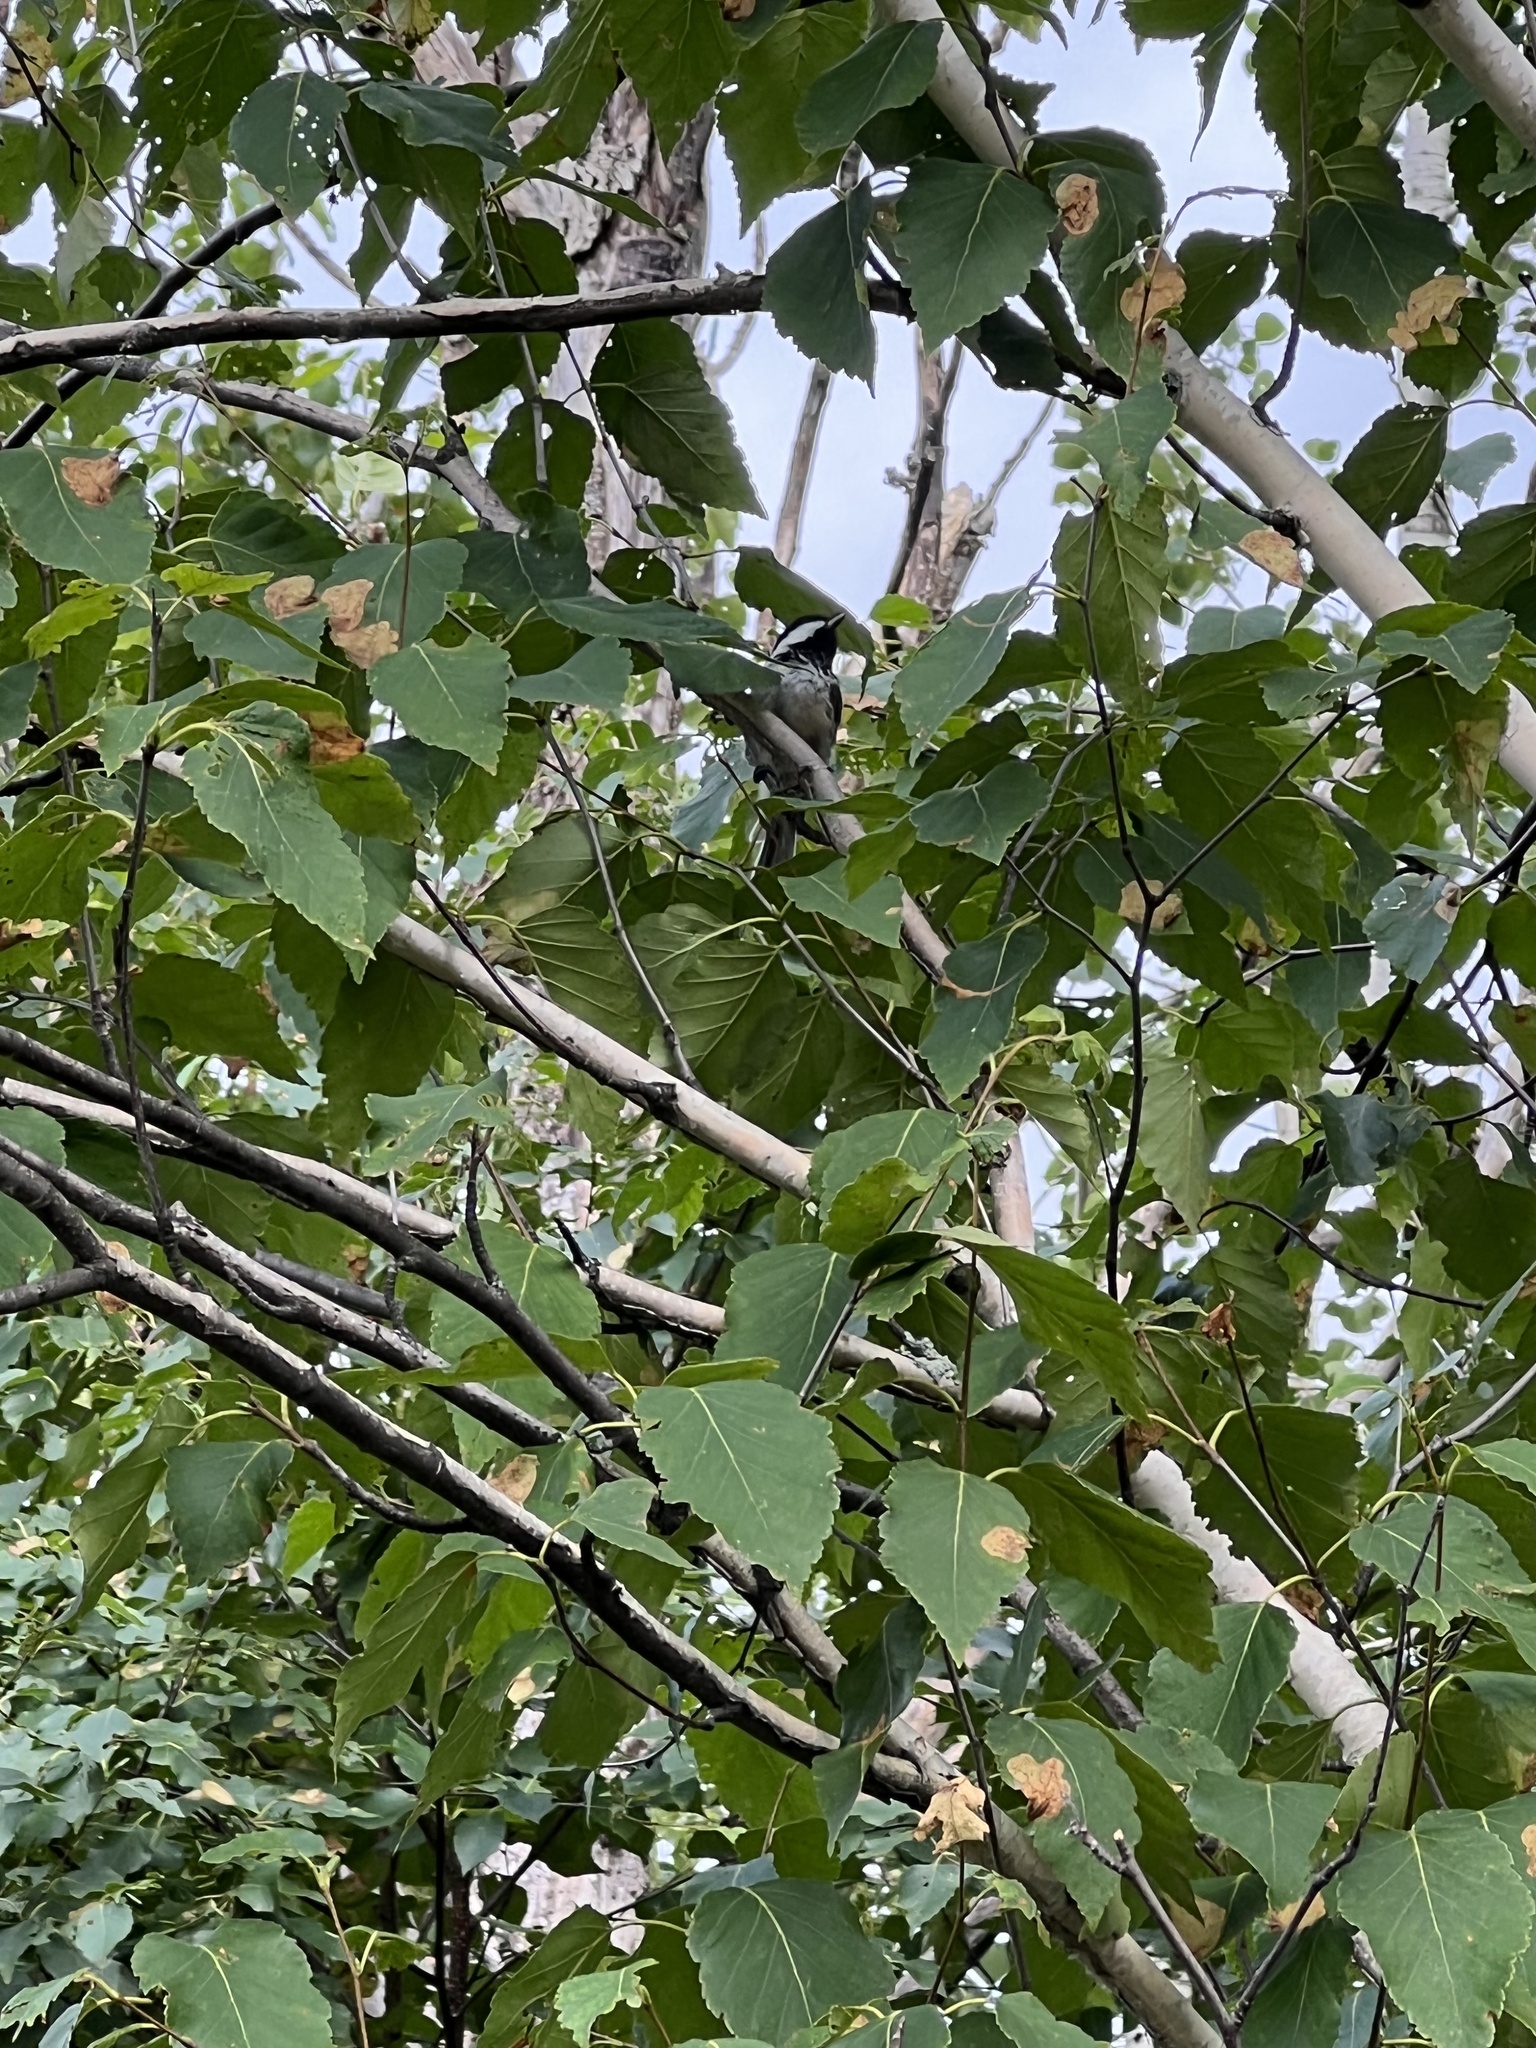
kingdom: Animalia
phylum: Chordata
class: Aves
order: Passeriformes
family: Paridae
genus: Poecile
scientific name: Poecile atricapillus
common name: Black-capped chickadee
